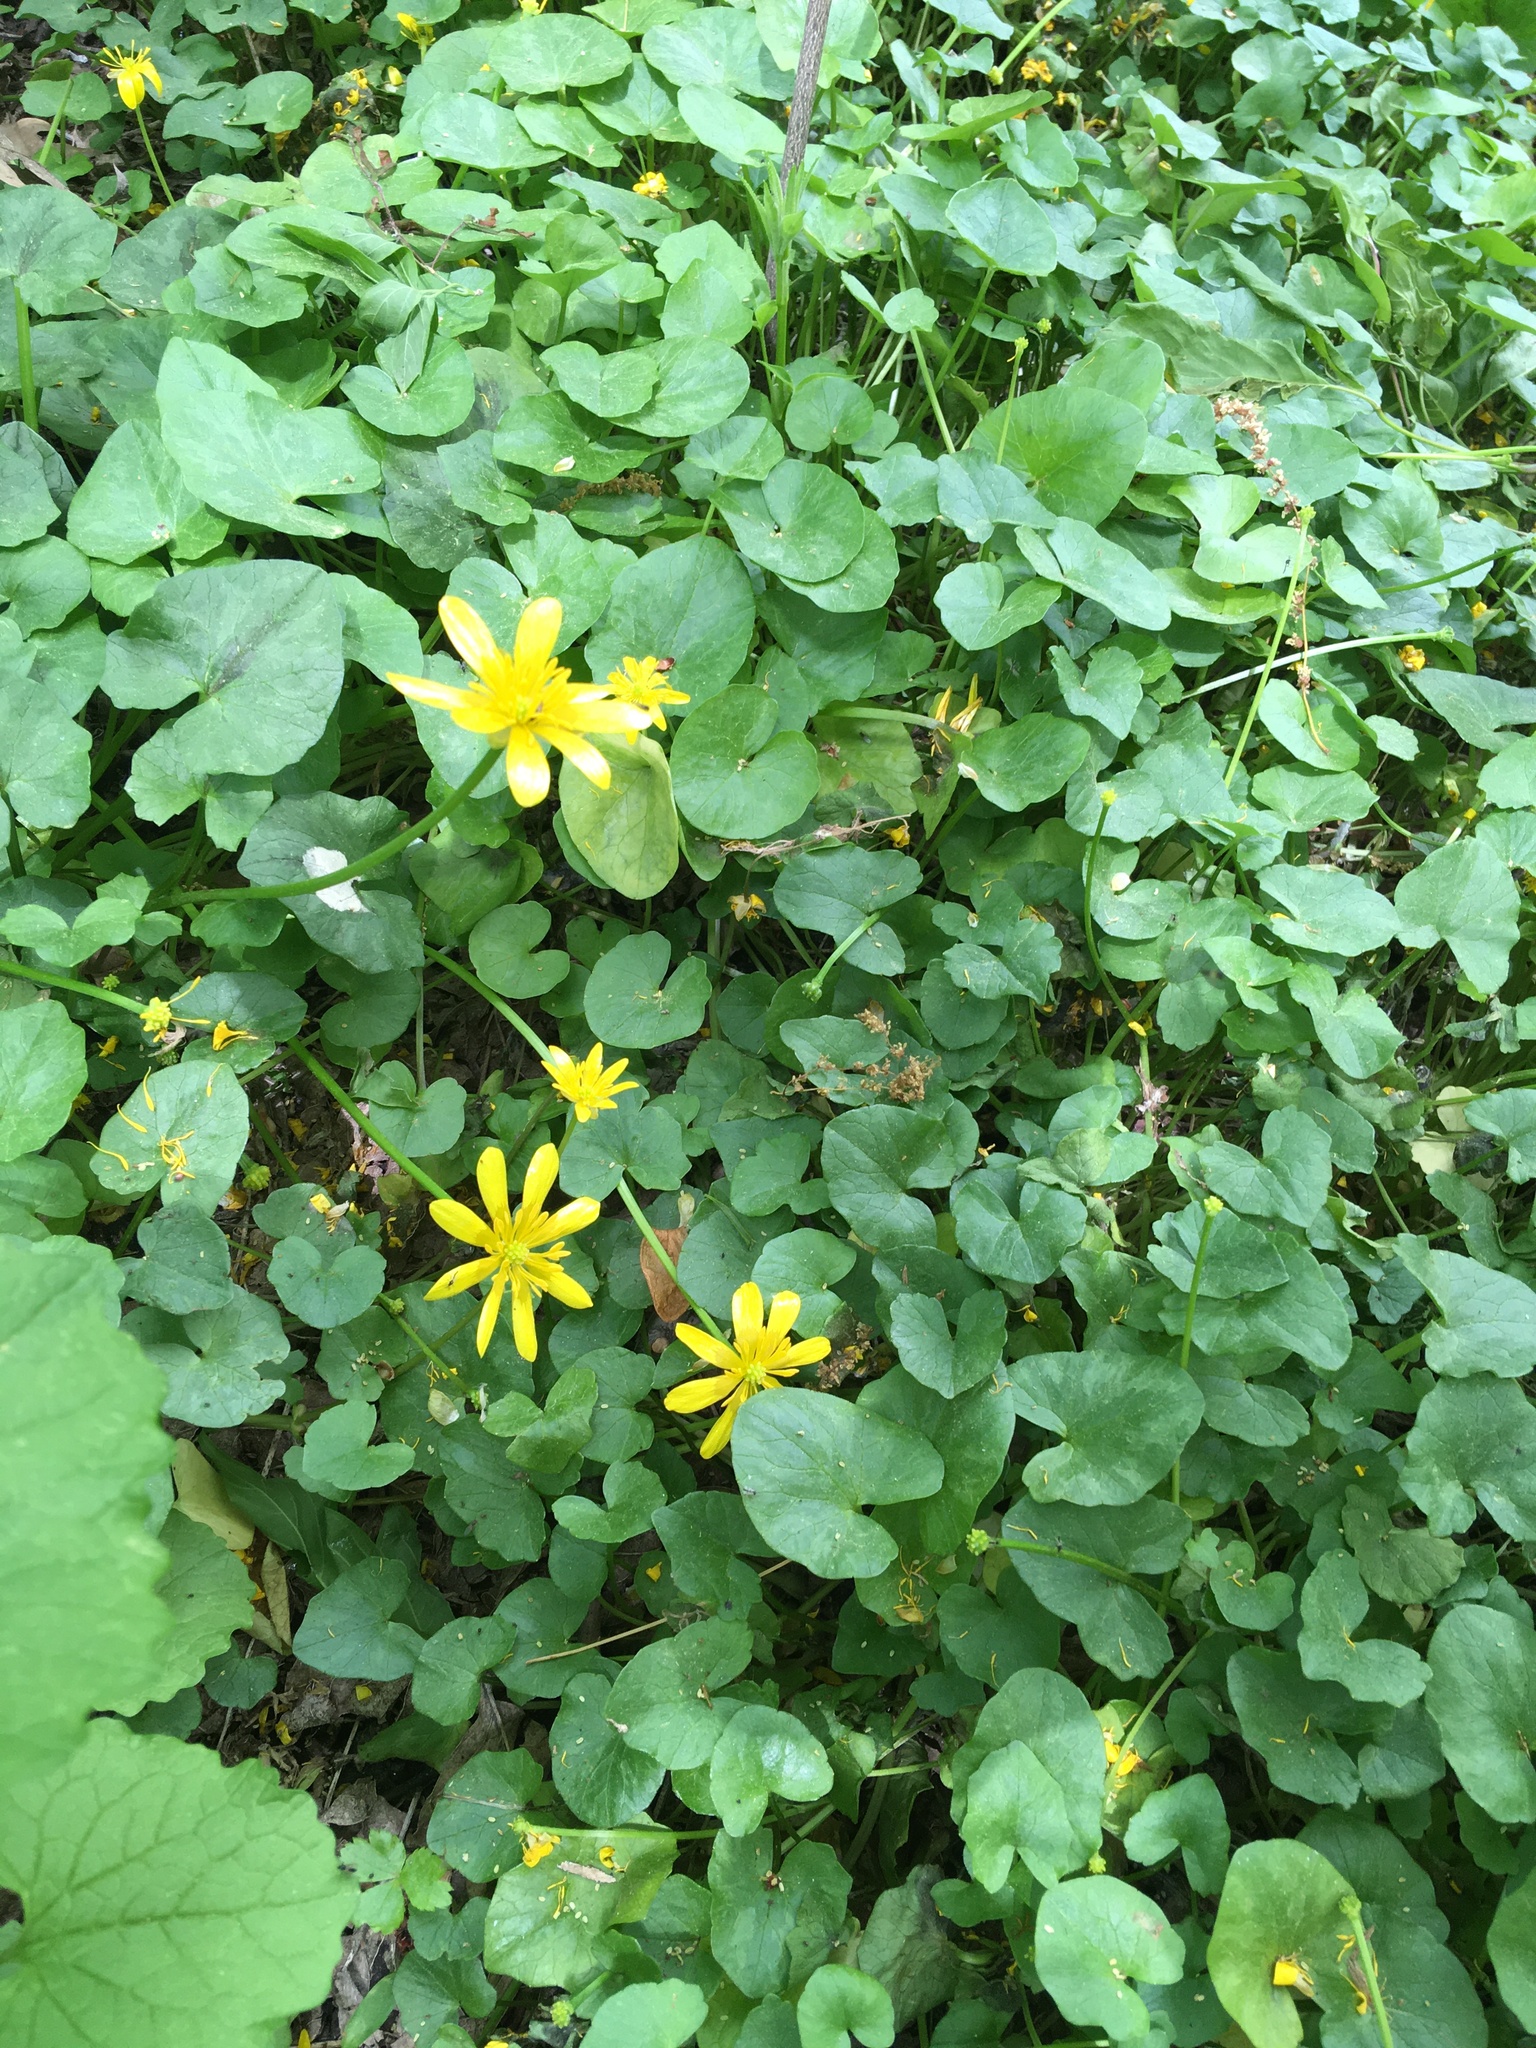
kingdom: Plantae
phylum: Tracheophyta
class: Magnoliopsida
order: Ranunculales
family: Ranunculaceae
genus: Ficaria
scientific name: Ficaria verna
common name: Lesser celandine
